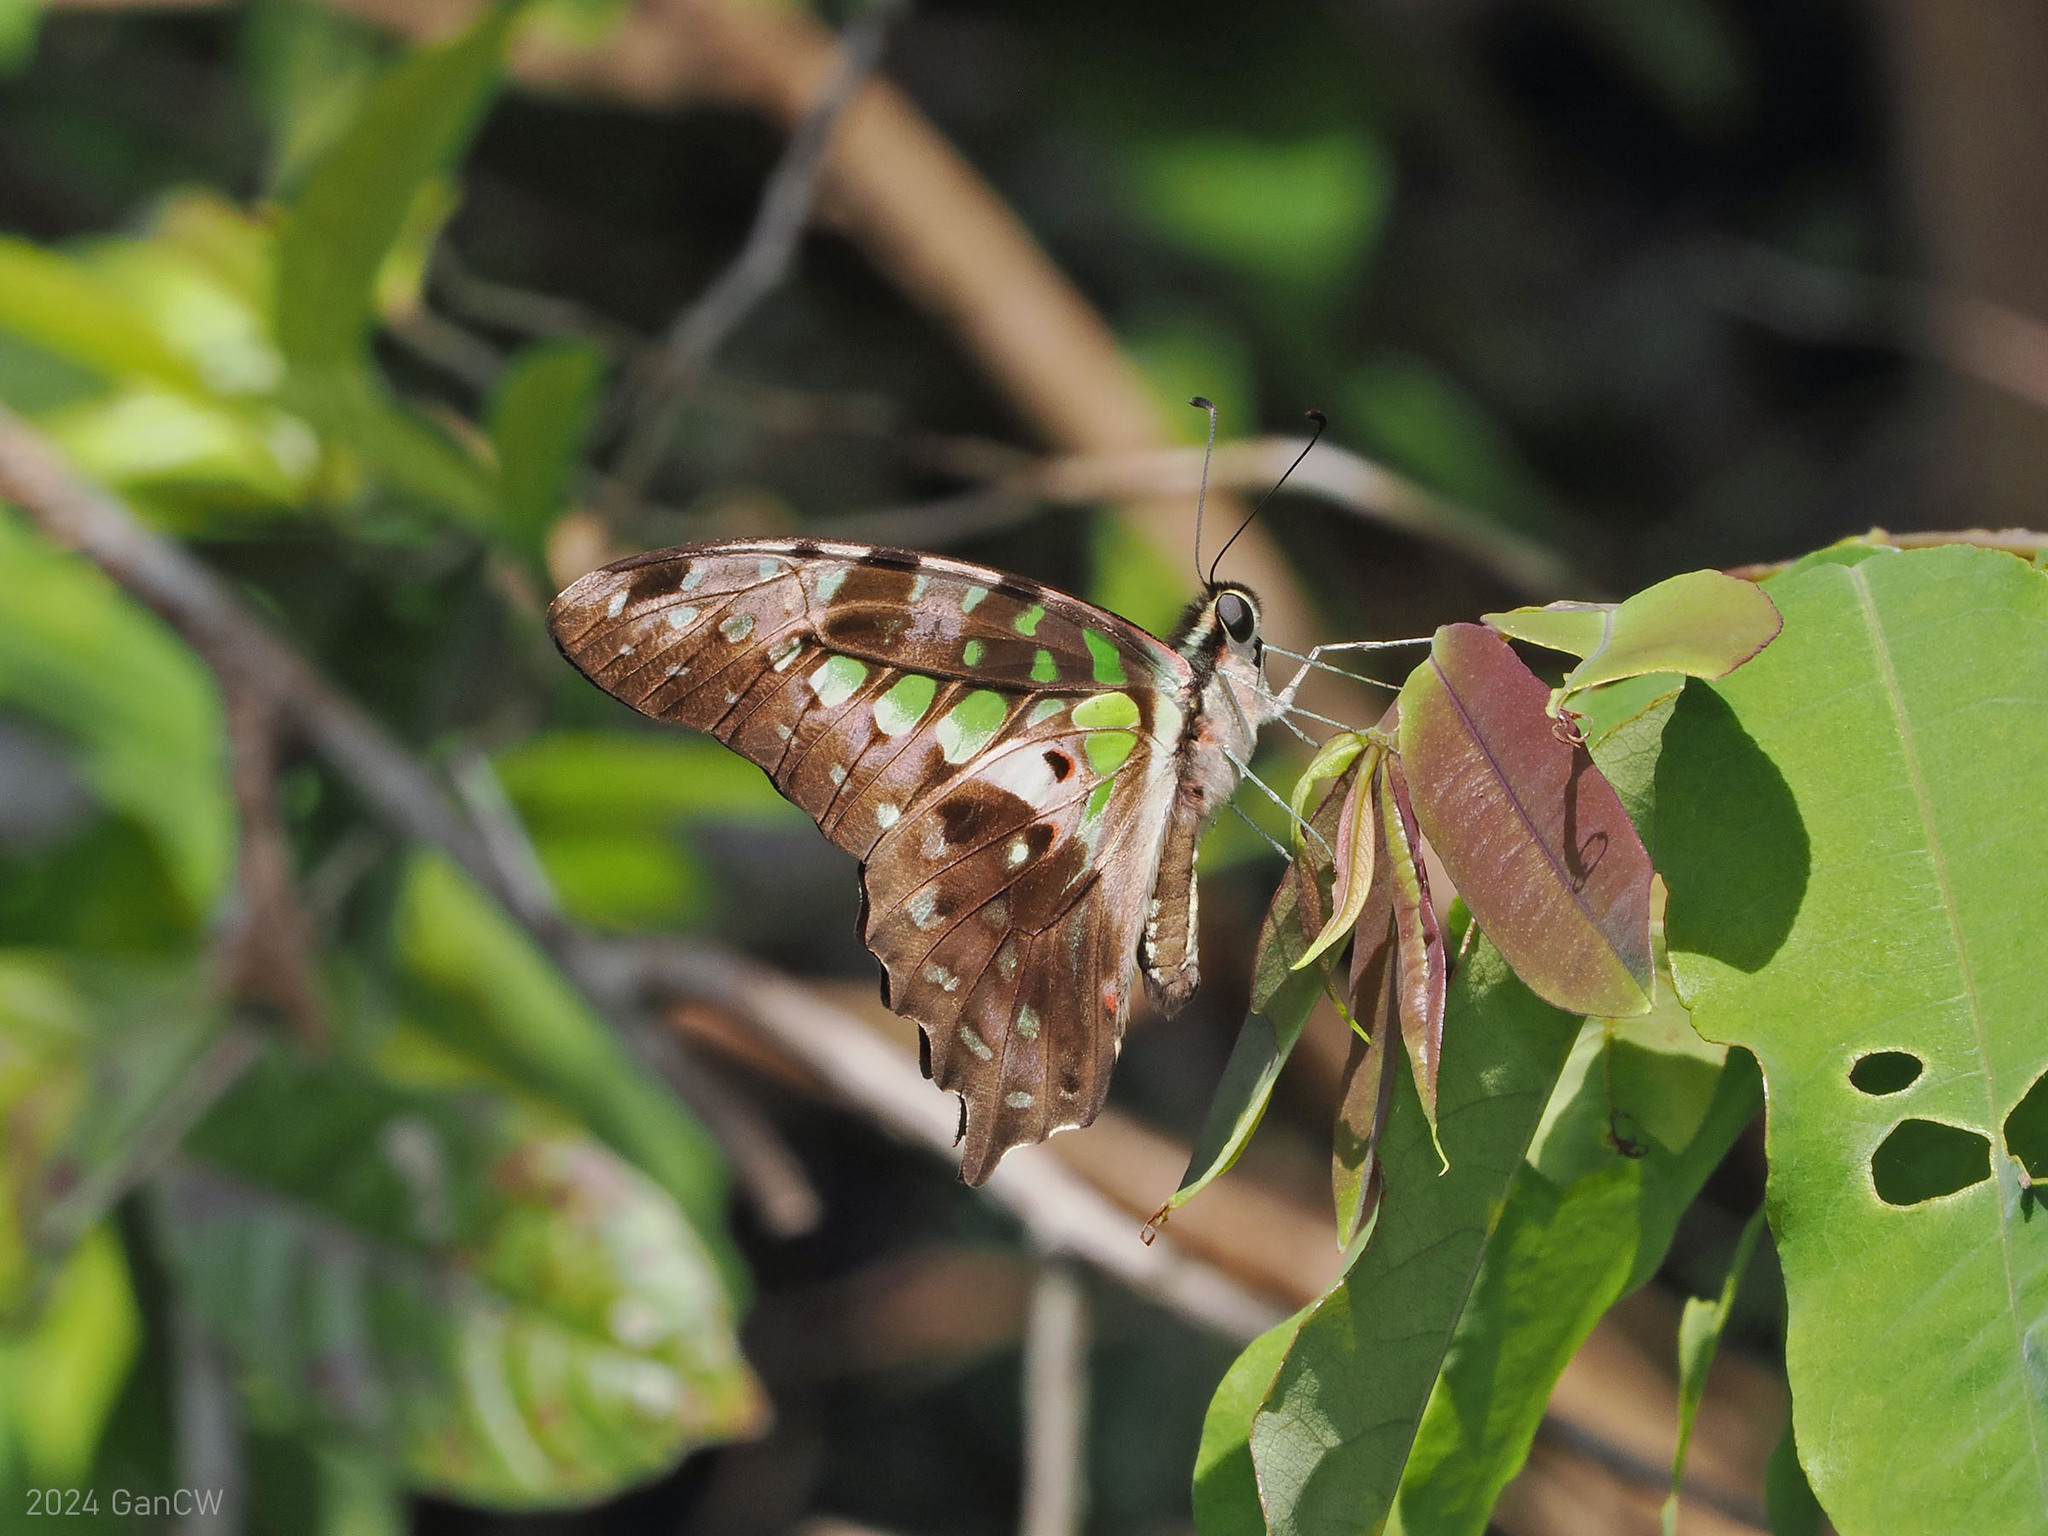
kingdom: Animalia
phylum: Arthropoda
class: Insecta
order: Lepidoptera
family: Papilionidae
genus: Graphium
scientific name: Graphium agamemnon
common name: Tailed jay
